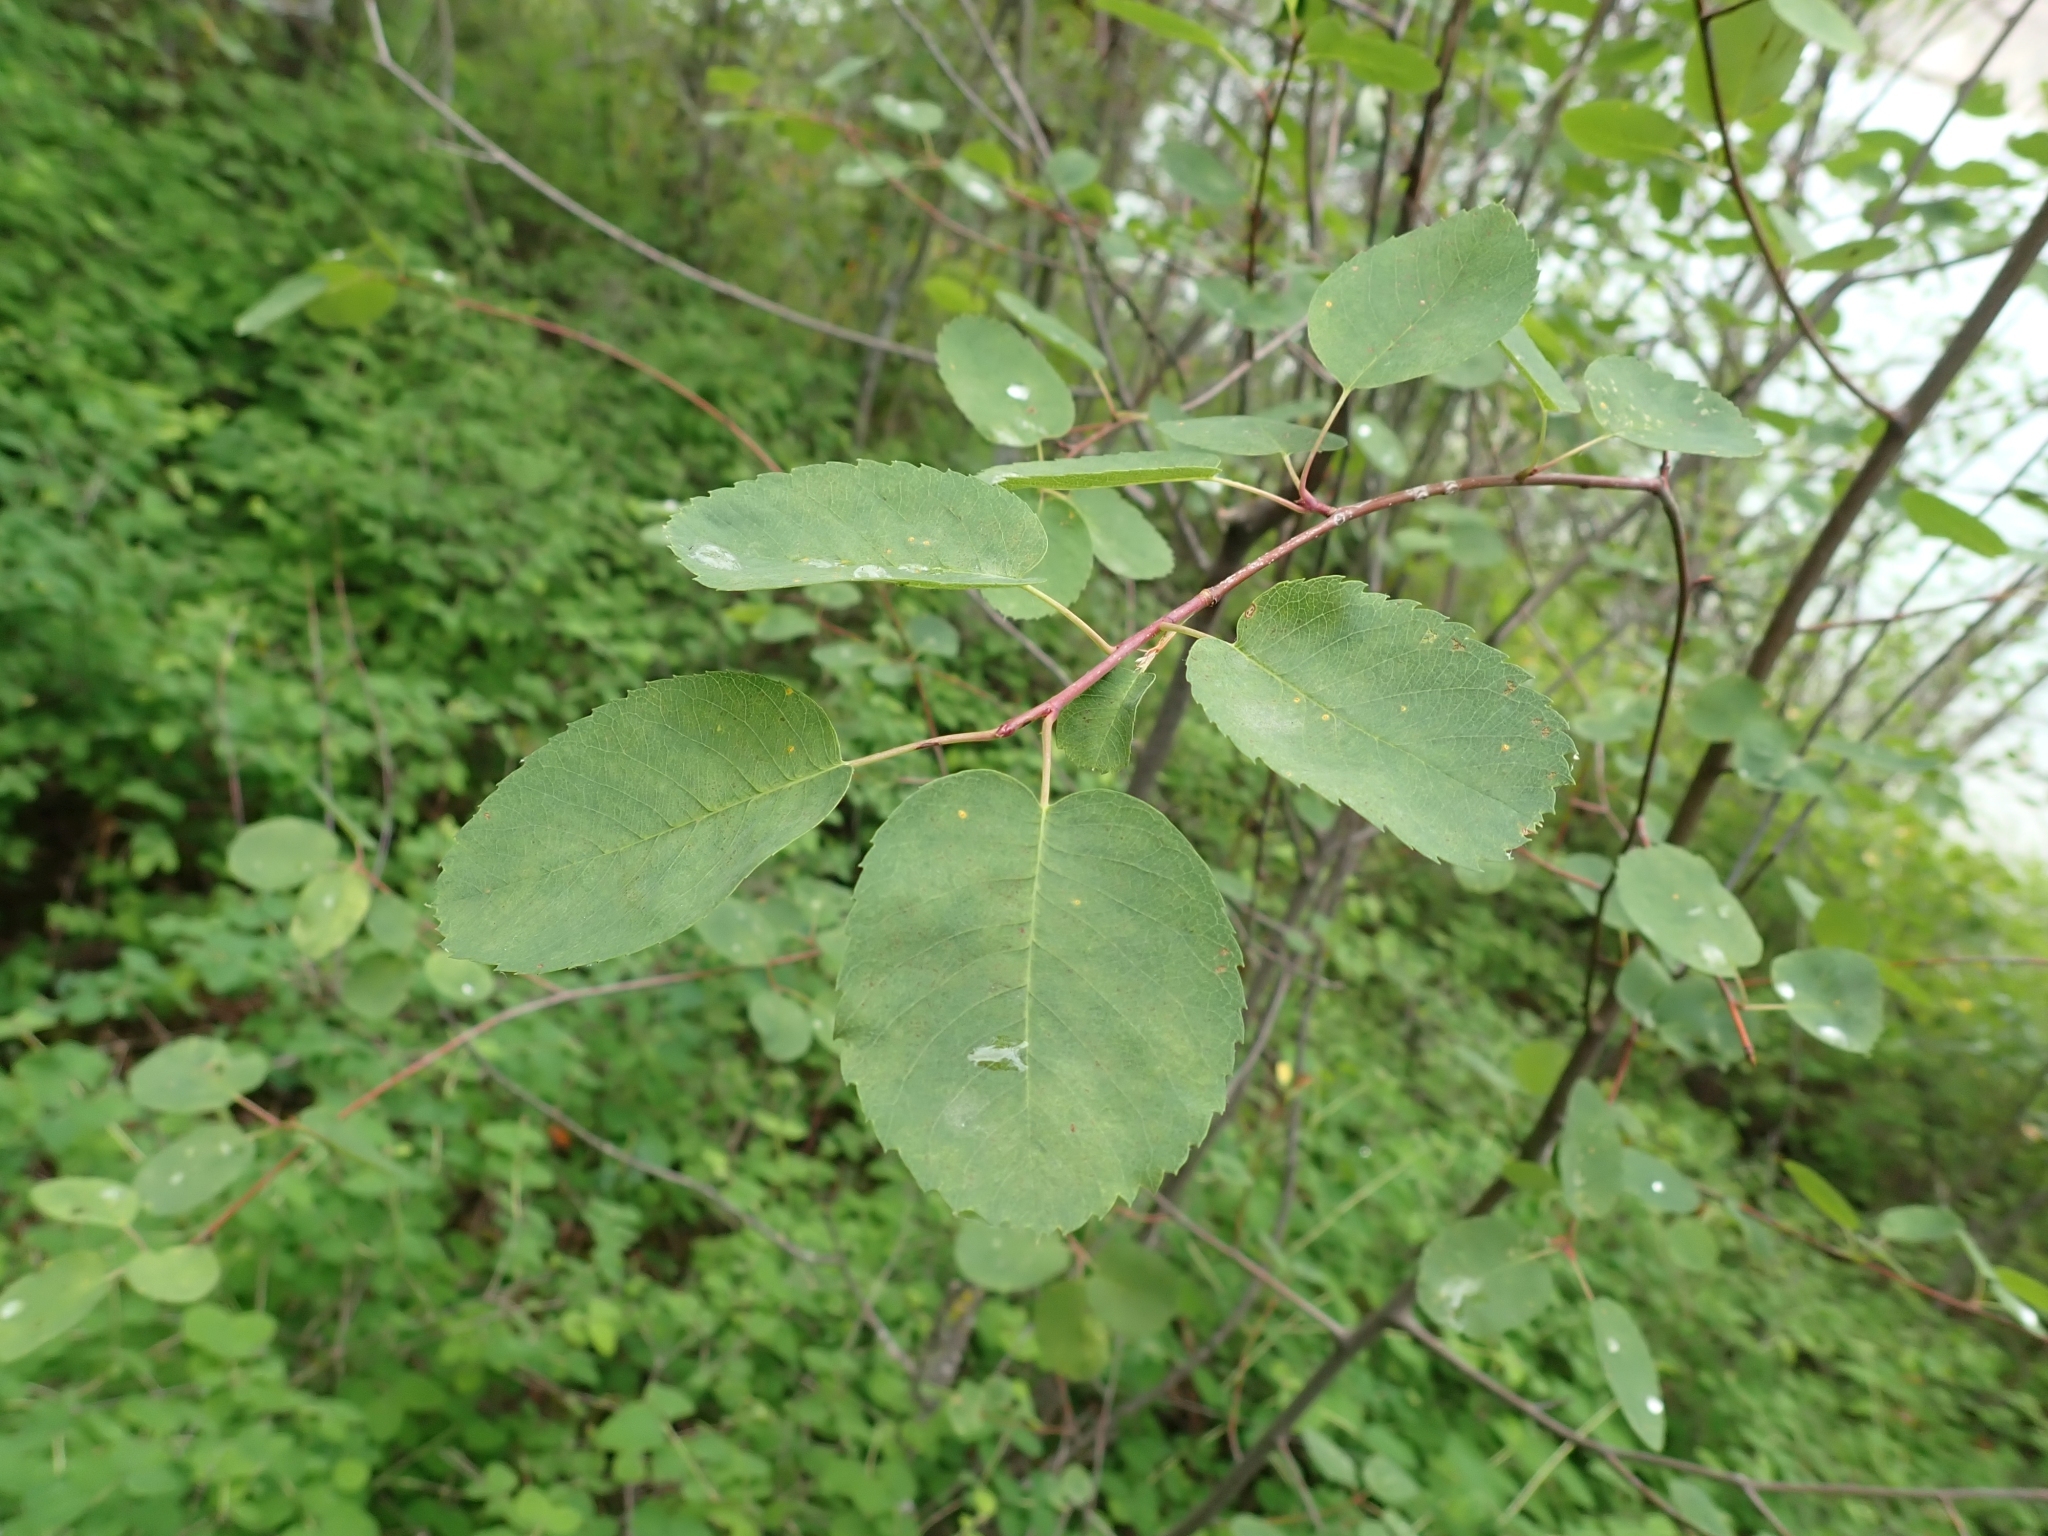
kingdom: Plantae
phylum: Tracheophyta
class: Magnoliopsida
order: Rosales
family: Rosaceae
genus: Amelanchier
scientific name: Amelanchier alnifolia
